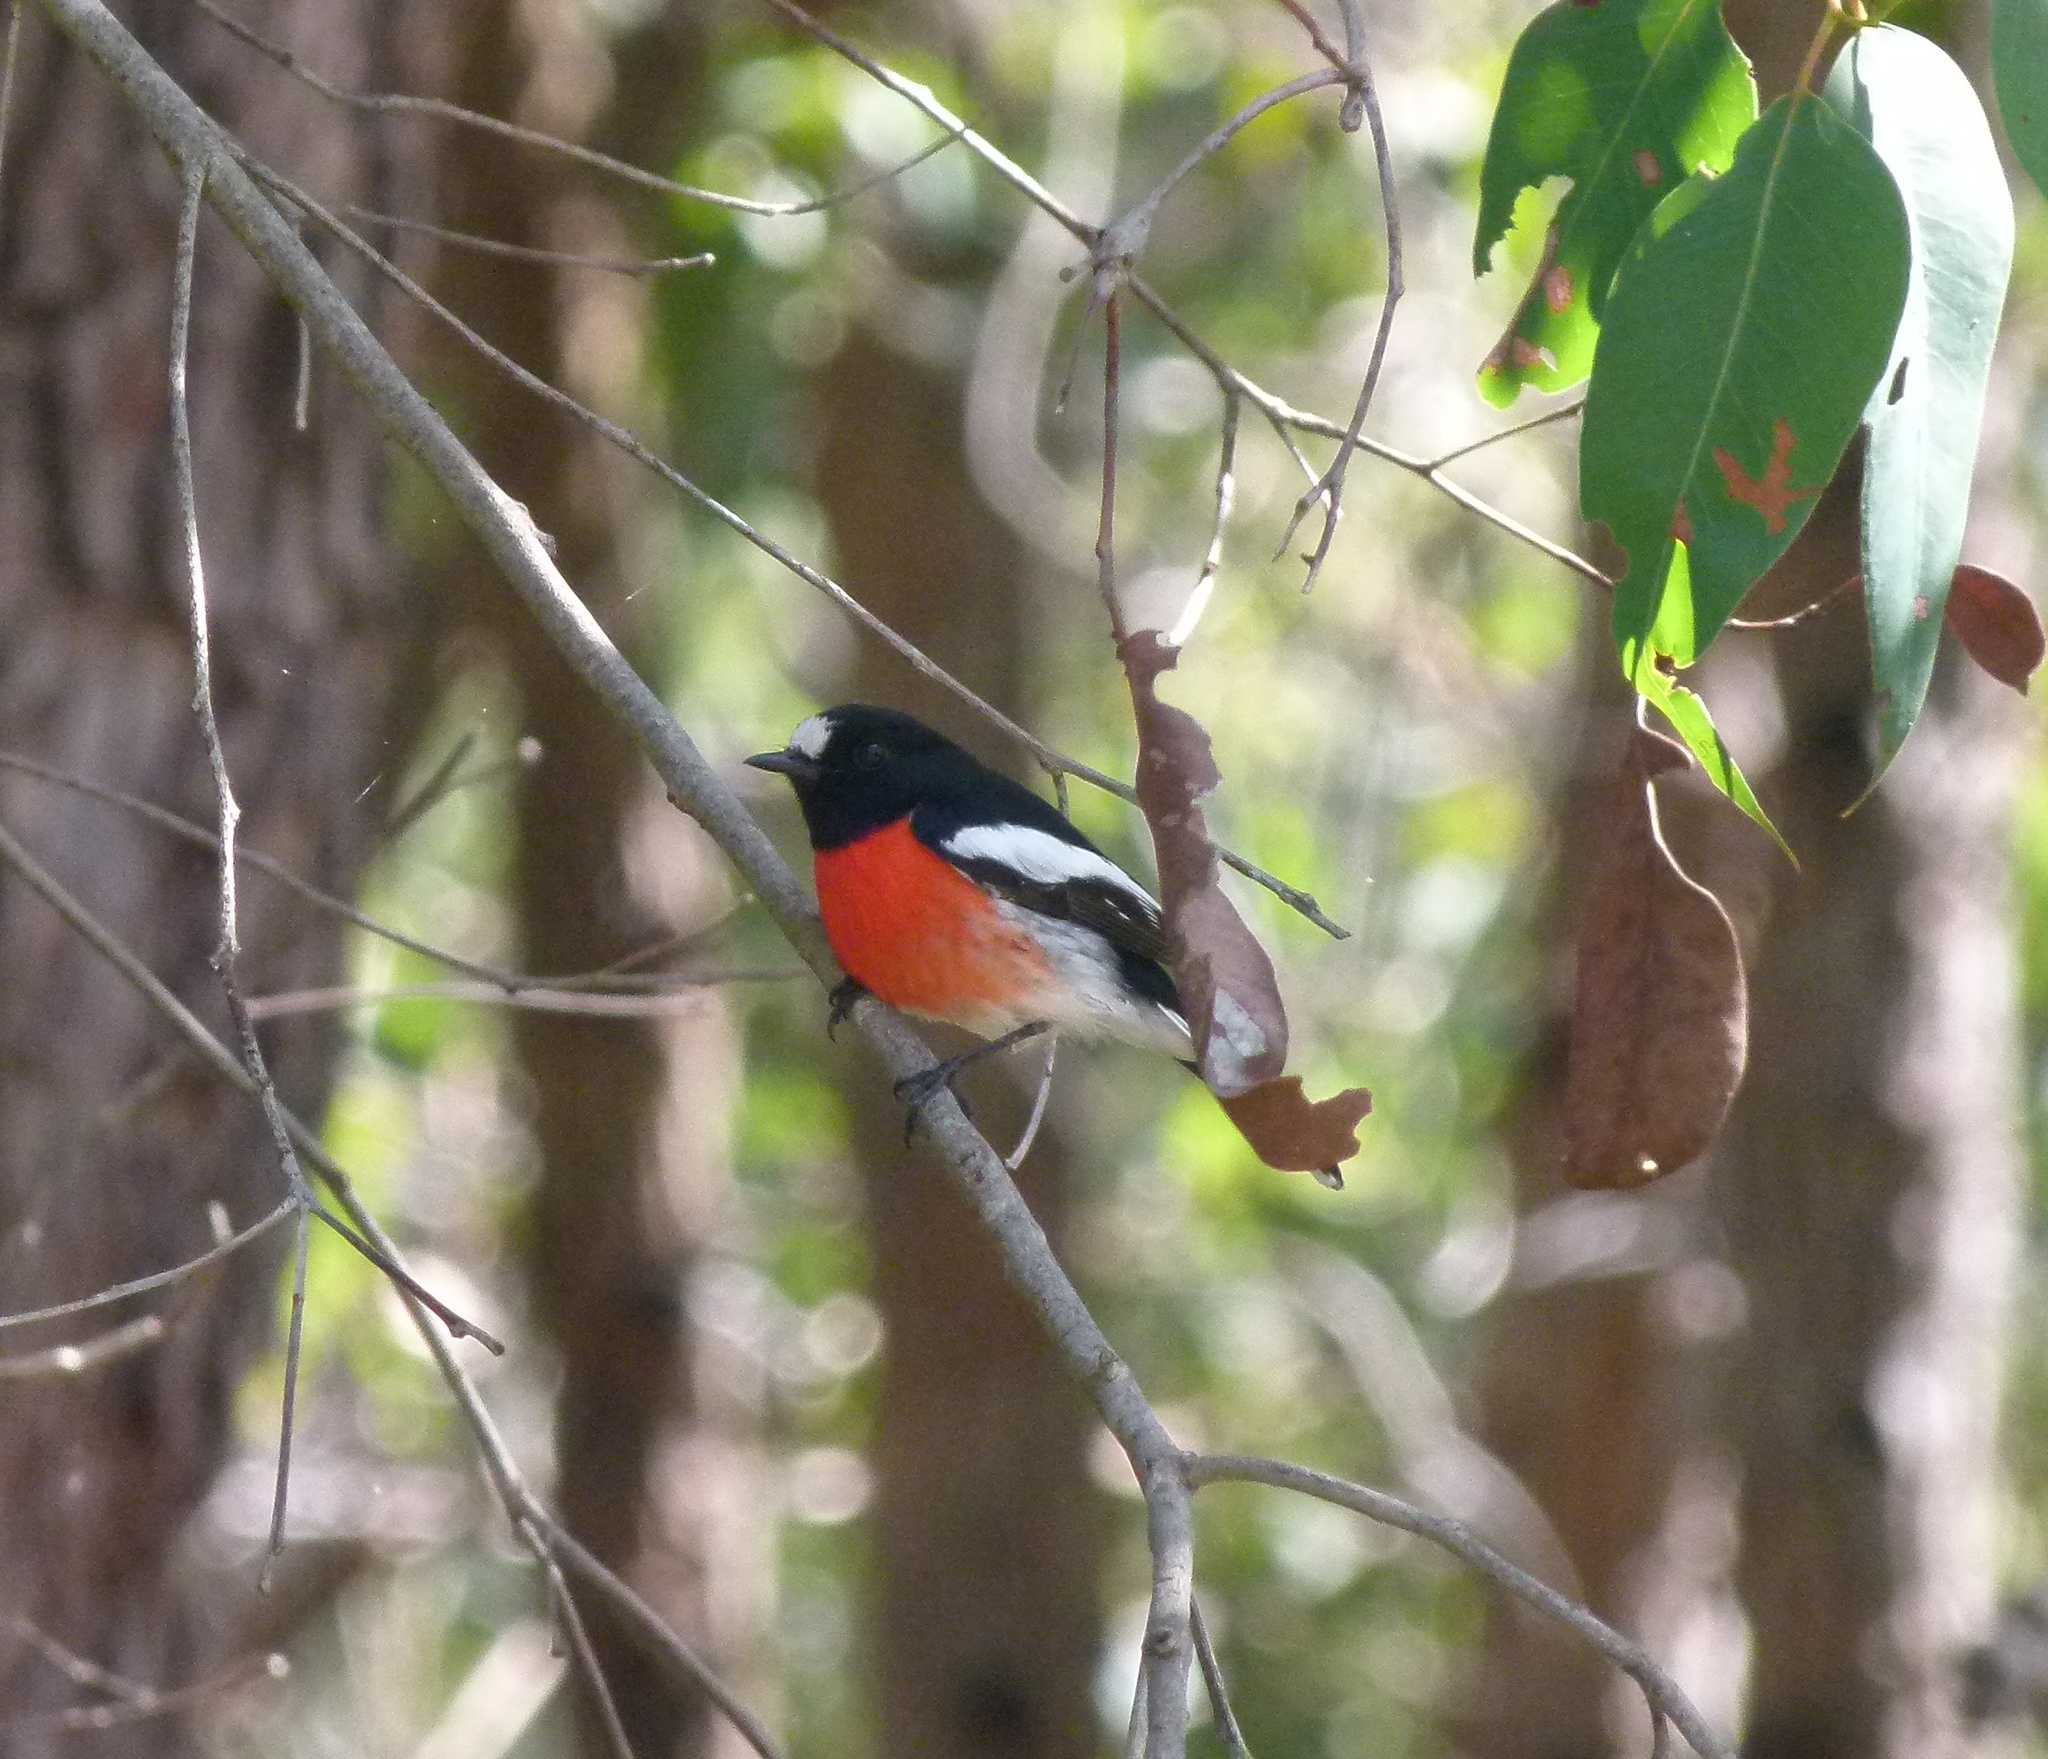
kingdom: Animalia
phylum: Chordata
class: Aves
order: Passeriformes
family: Petroicidae
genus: Petroica
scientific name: Petroica boodang
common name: Scarlet robin
